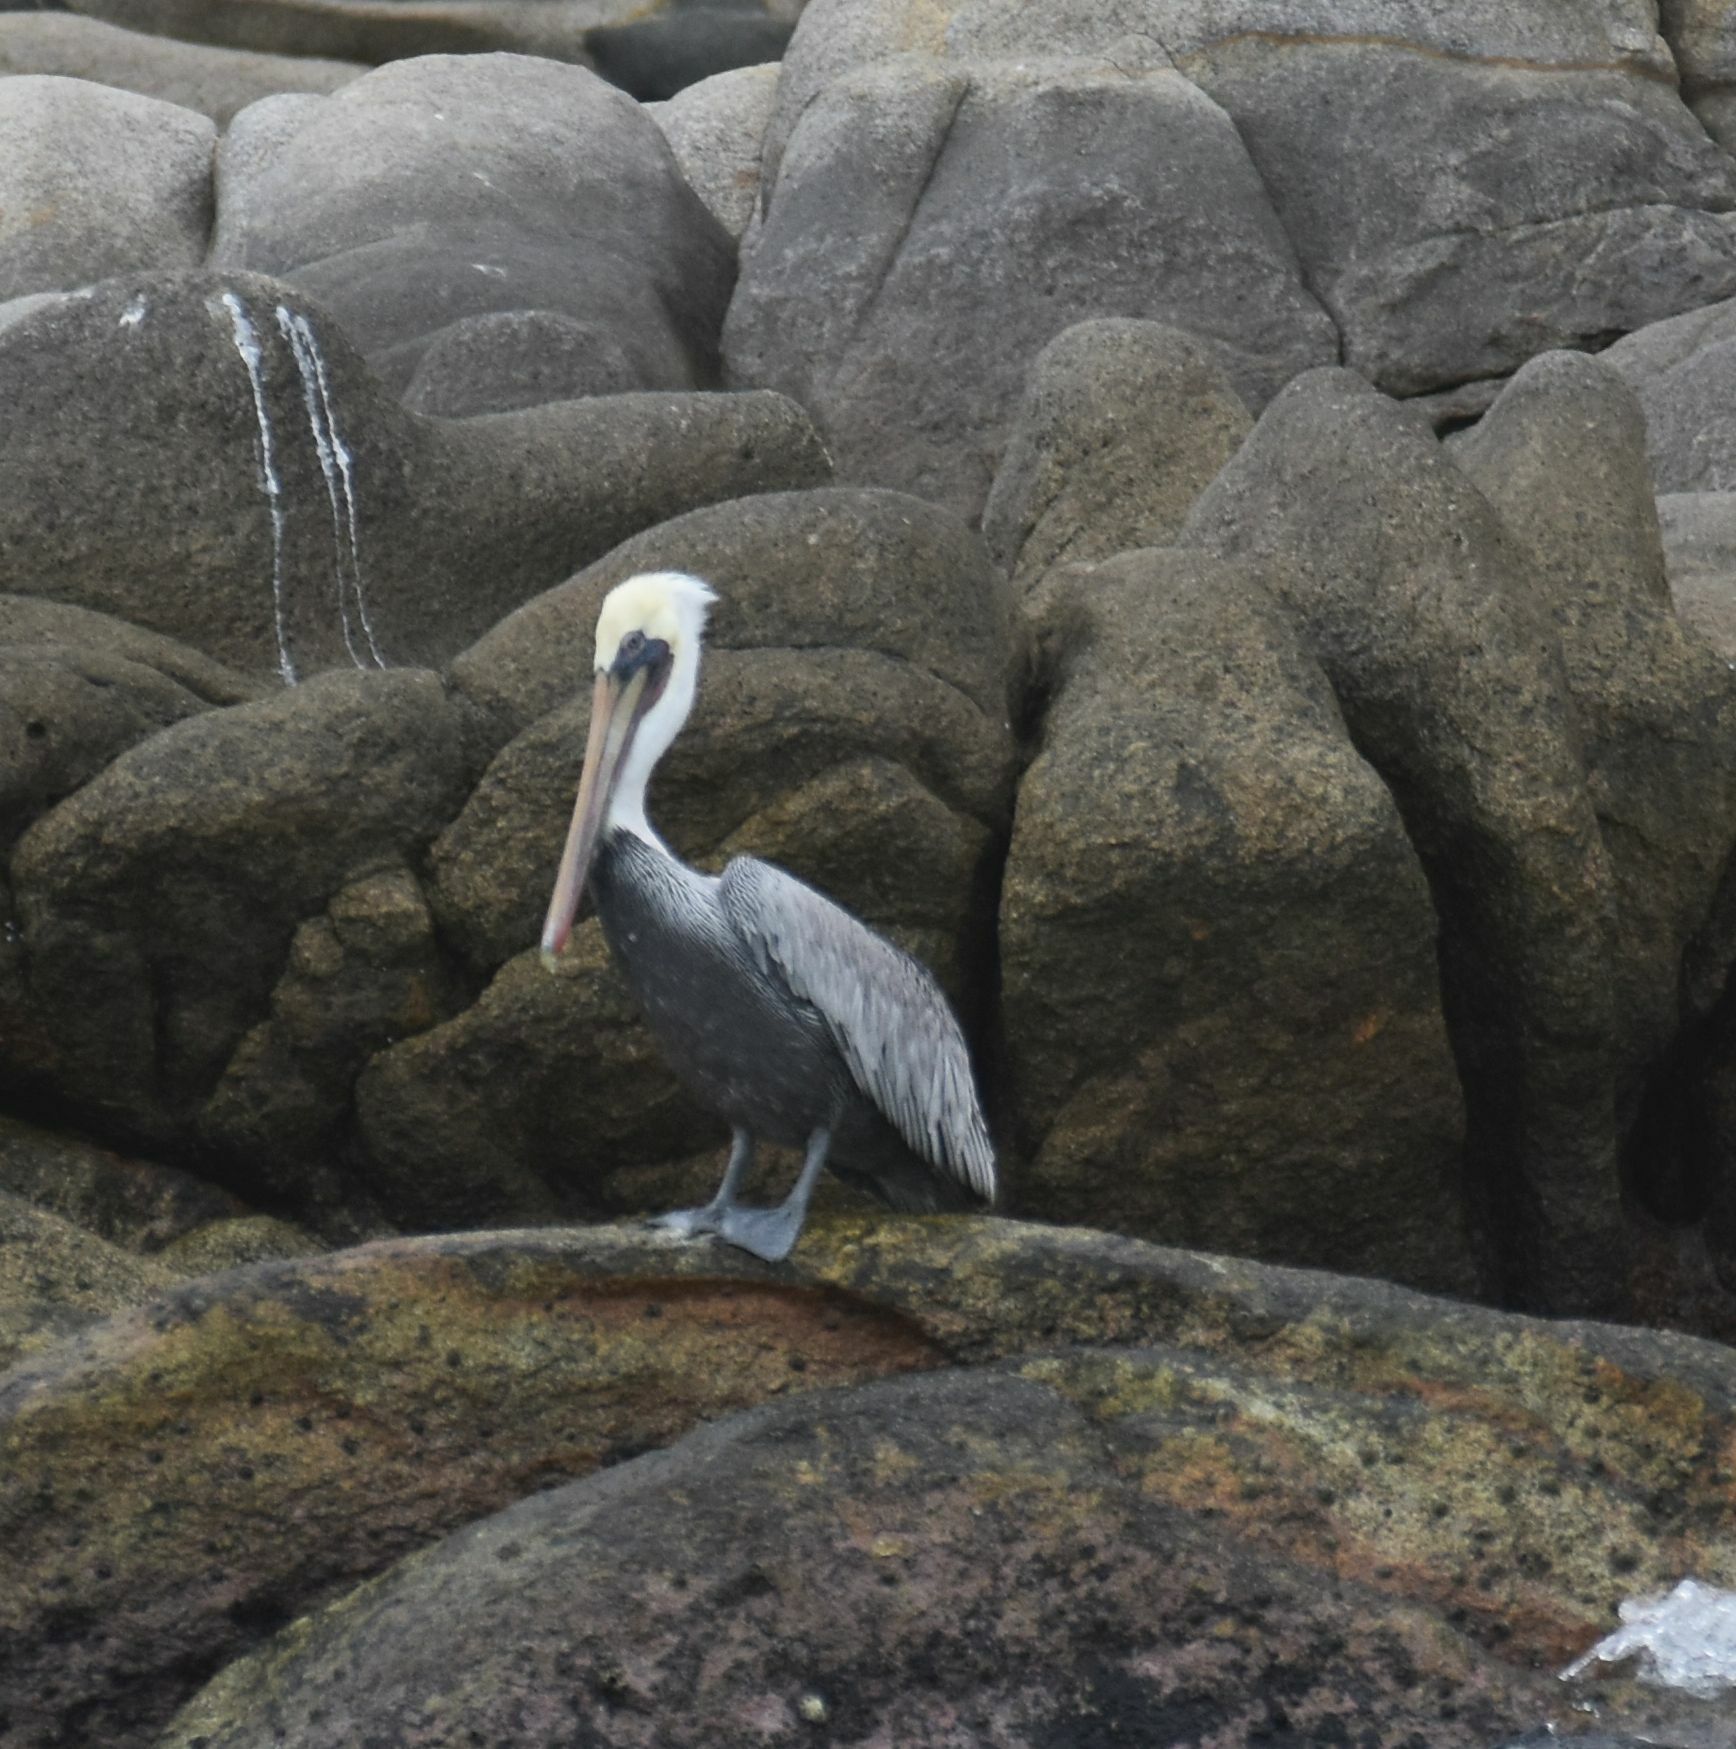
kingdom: Animalia
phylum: Chordata
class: Aves
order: Pelecaniformes
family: Pelecanidae
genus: Pelecanus
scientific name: Pelecanus occidentalis
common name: Brown pelican
